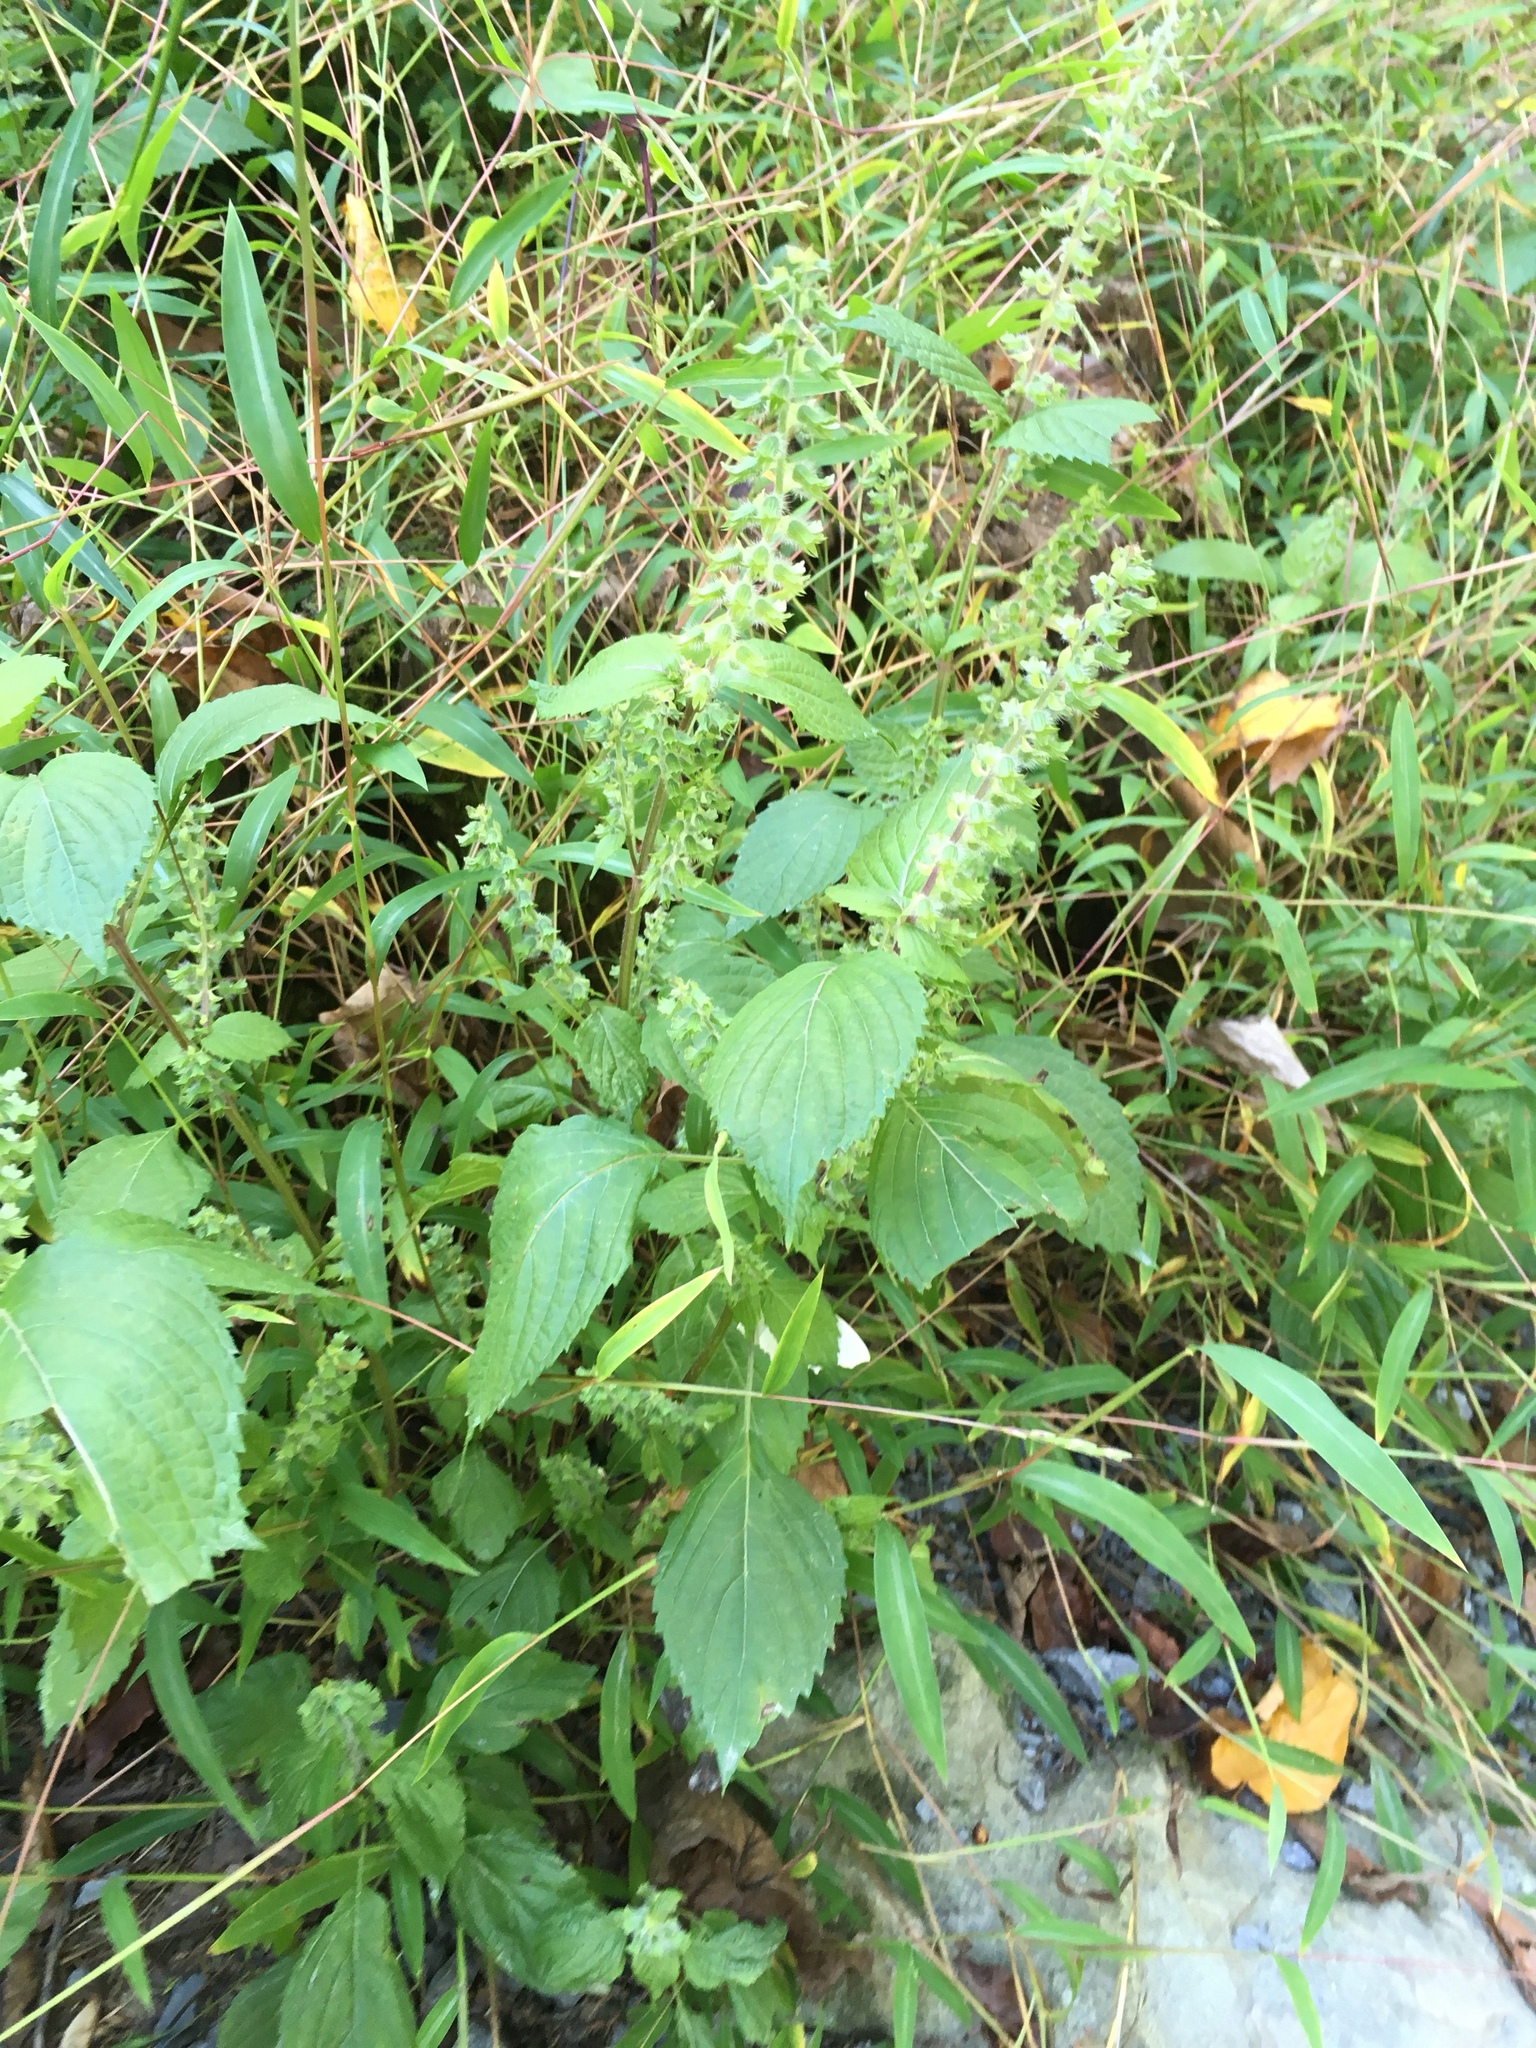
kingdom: Plantae
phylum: Tracheophyta
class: Magnoliopsida
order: Lamiales
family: Lamiaceae
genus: Perilla
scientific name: Perilla frutescens
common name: Perilla
